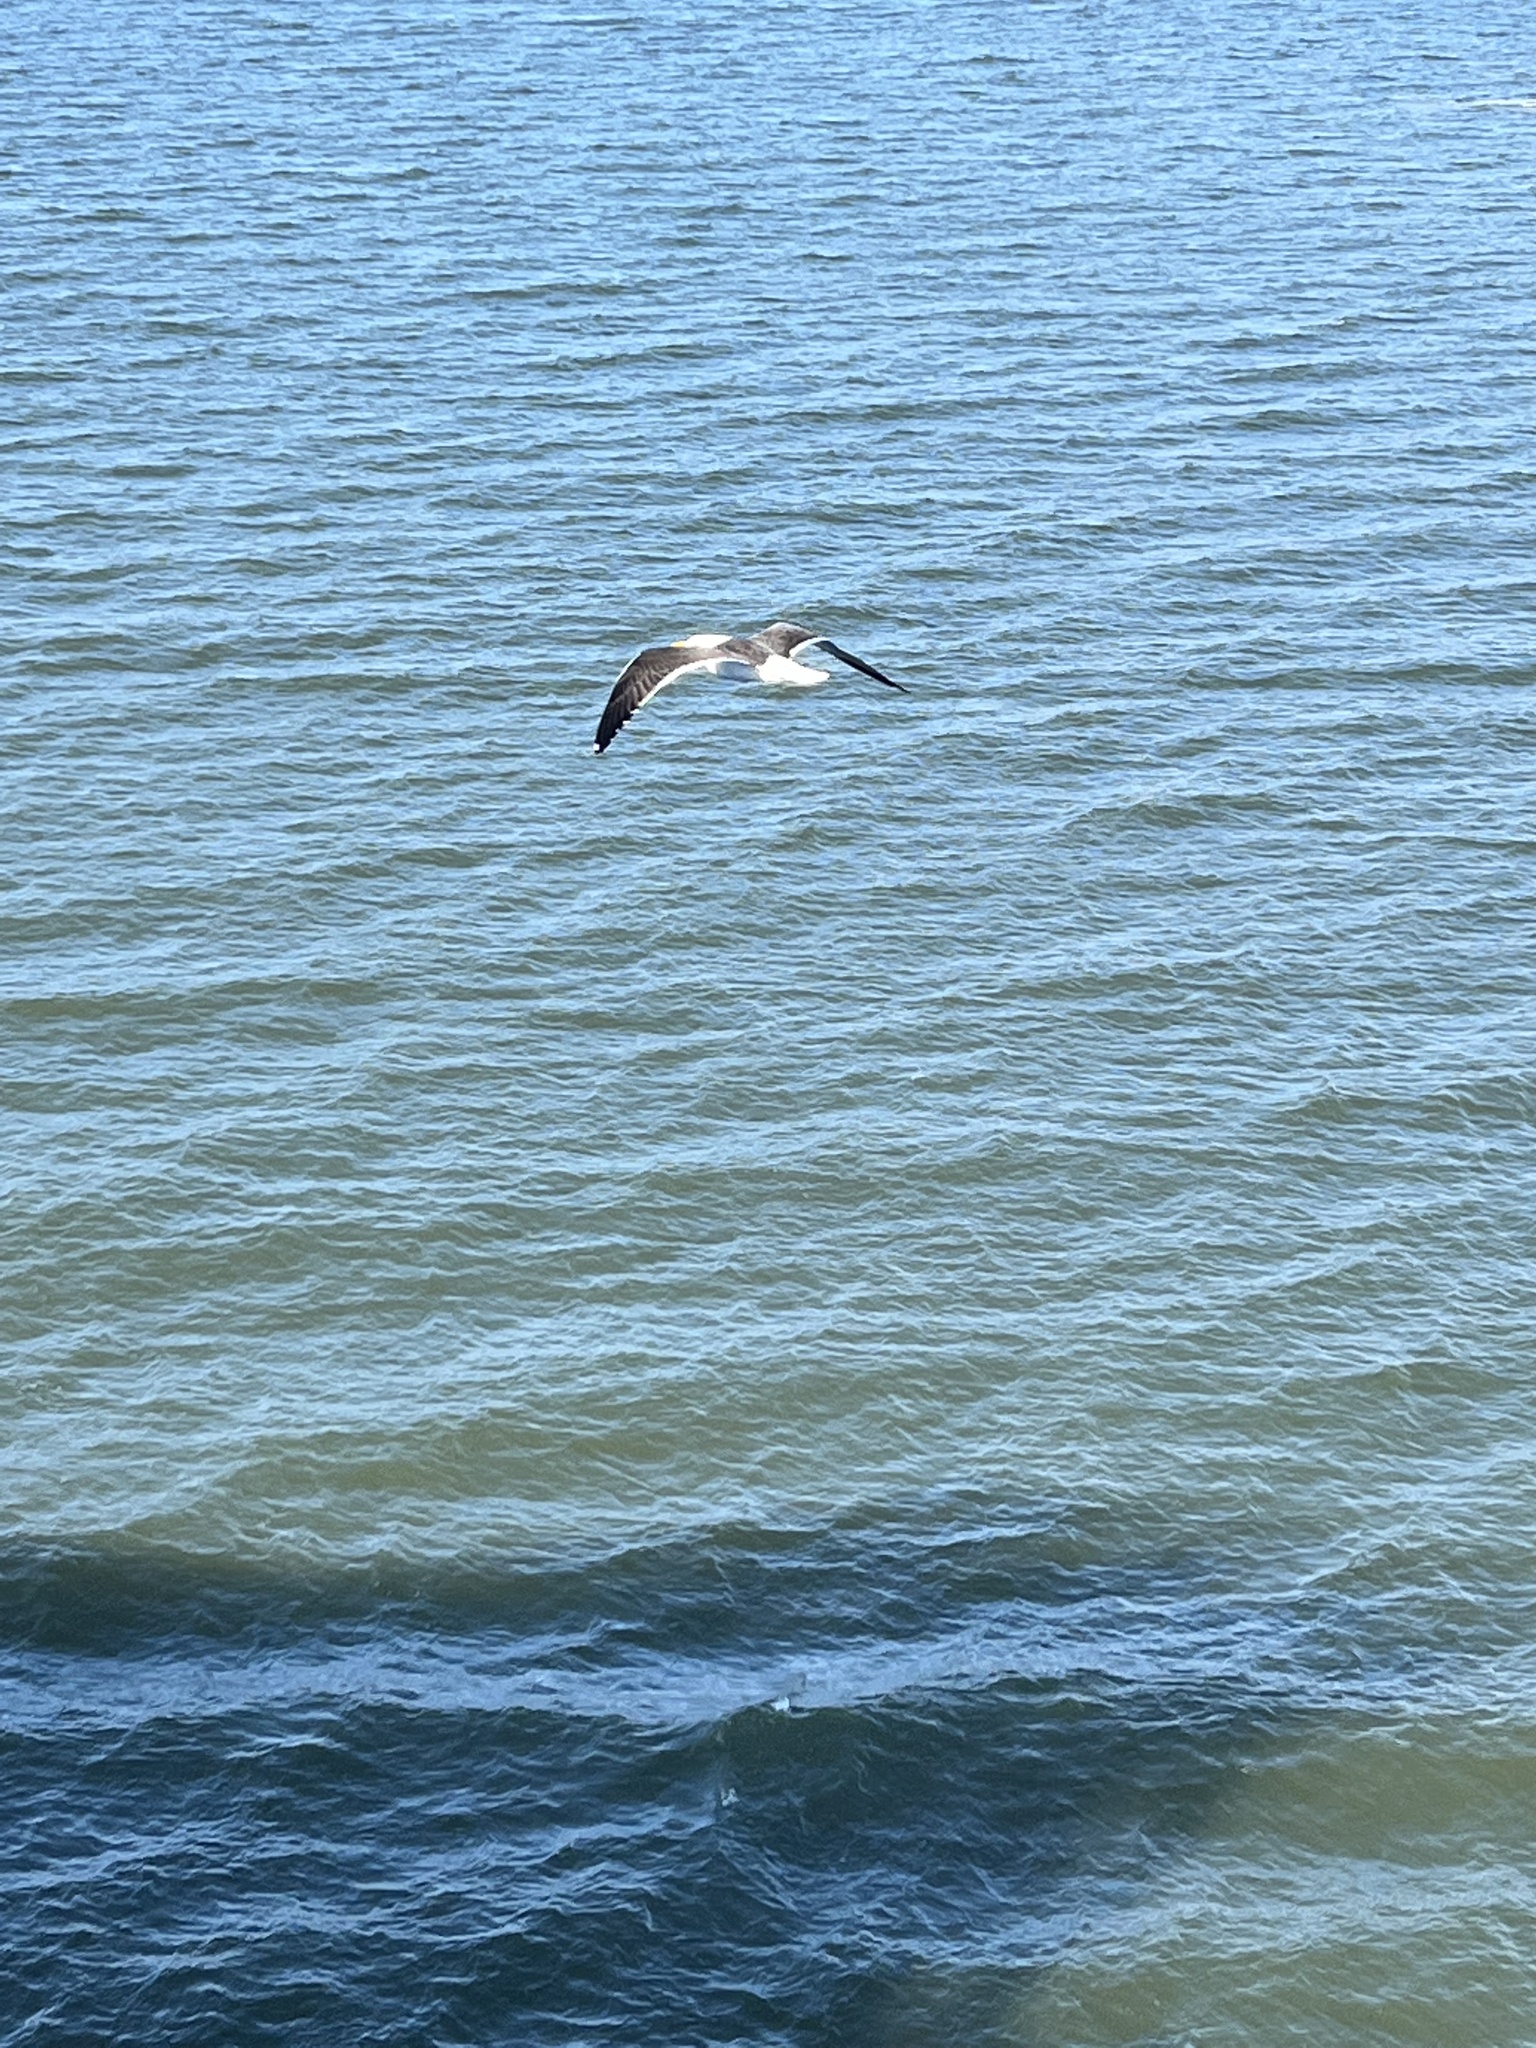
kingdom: Animalia
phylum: Chordata
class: Aves
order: Charadriiformes
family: Laridae
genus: Larus
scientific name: Larus marinus
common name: Great black-backed gull
